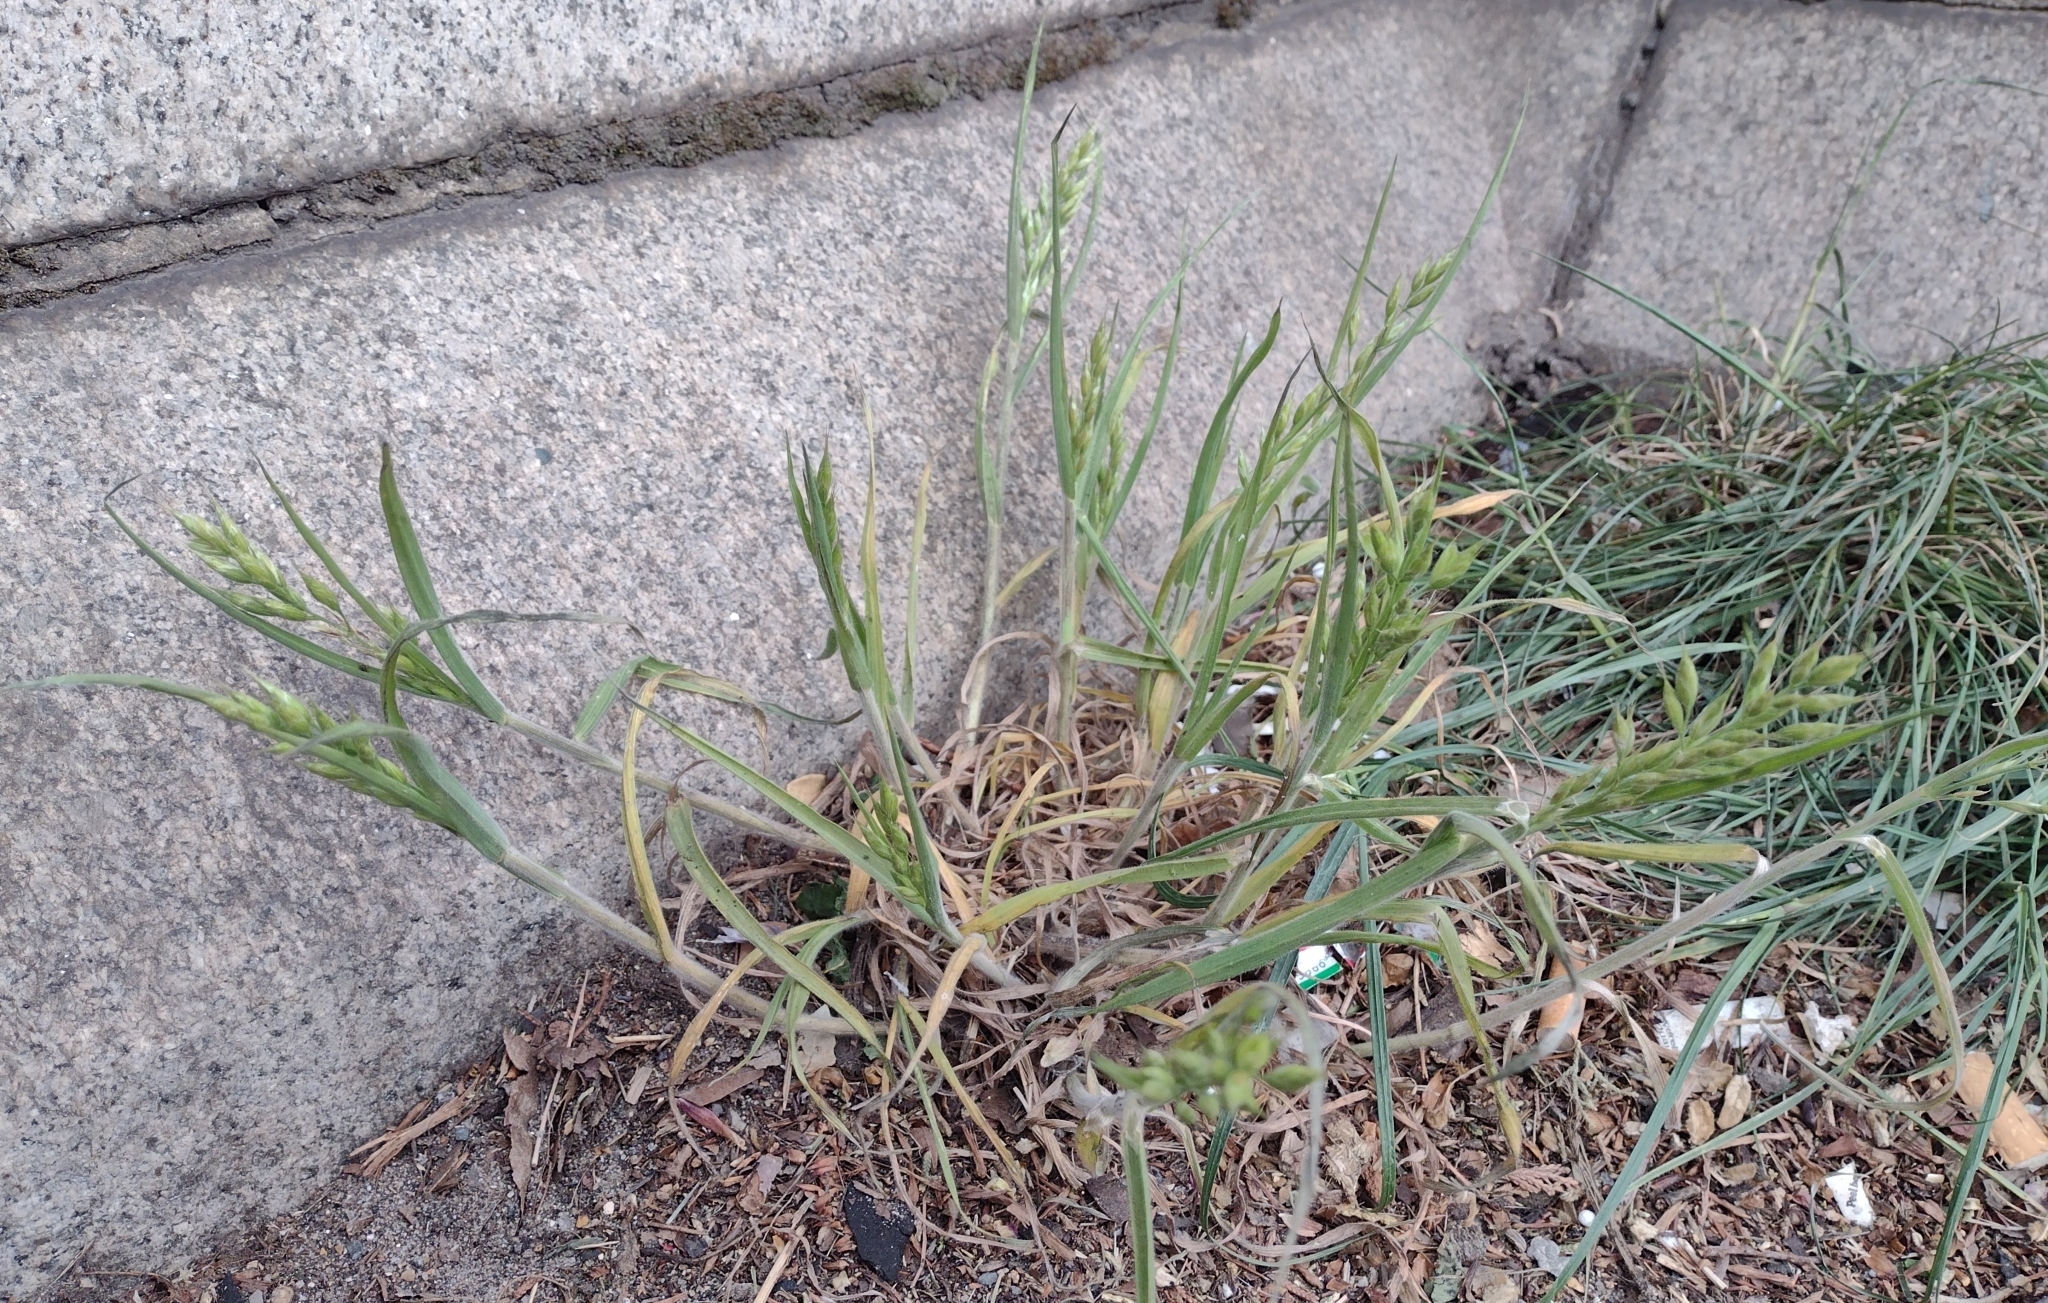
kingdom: Plantae
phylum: Tracheophyta
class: Liliopsida
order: Poales
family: Poaceae
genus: Bromus
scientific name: Bromus hordeaceus
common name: Soft brome
